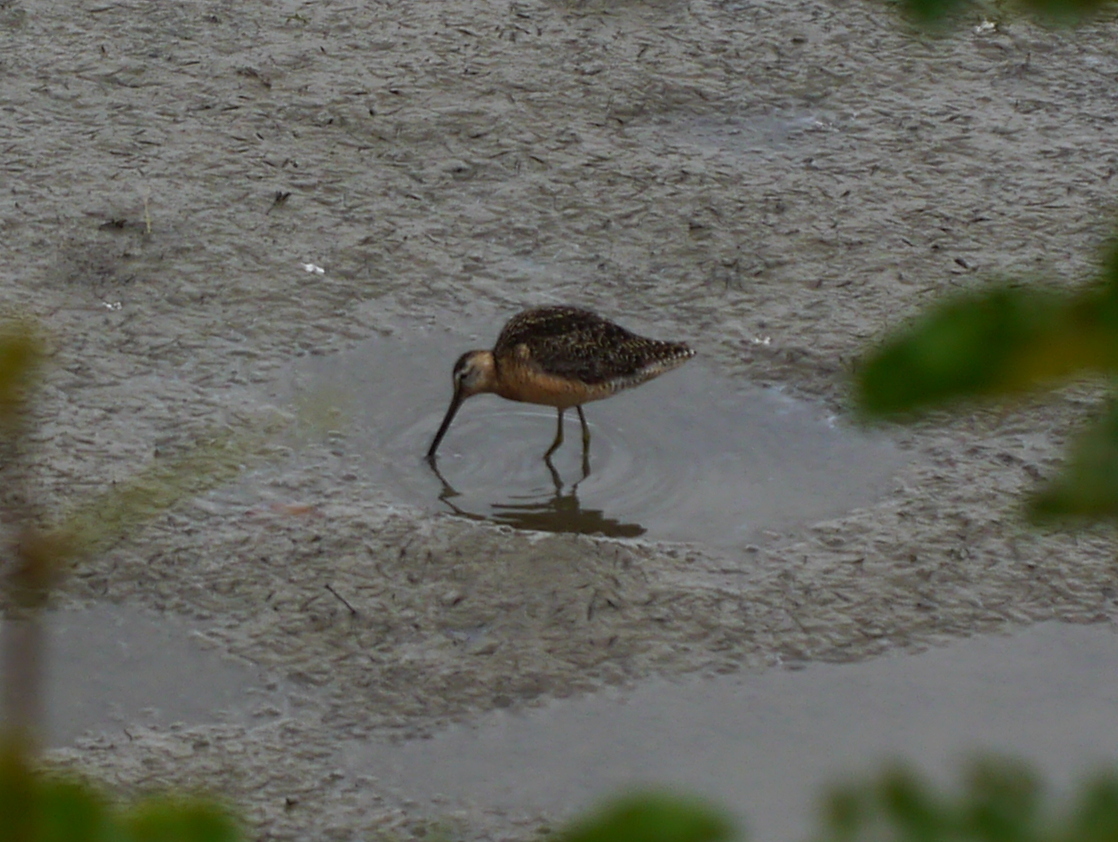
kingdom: Animalia
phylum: Chordata
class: Aves
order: Charadriiformes
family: Scolopacidae
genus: Limnodromus
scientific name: Limnodromus
